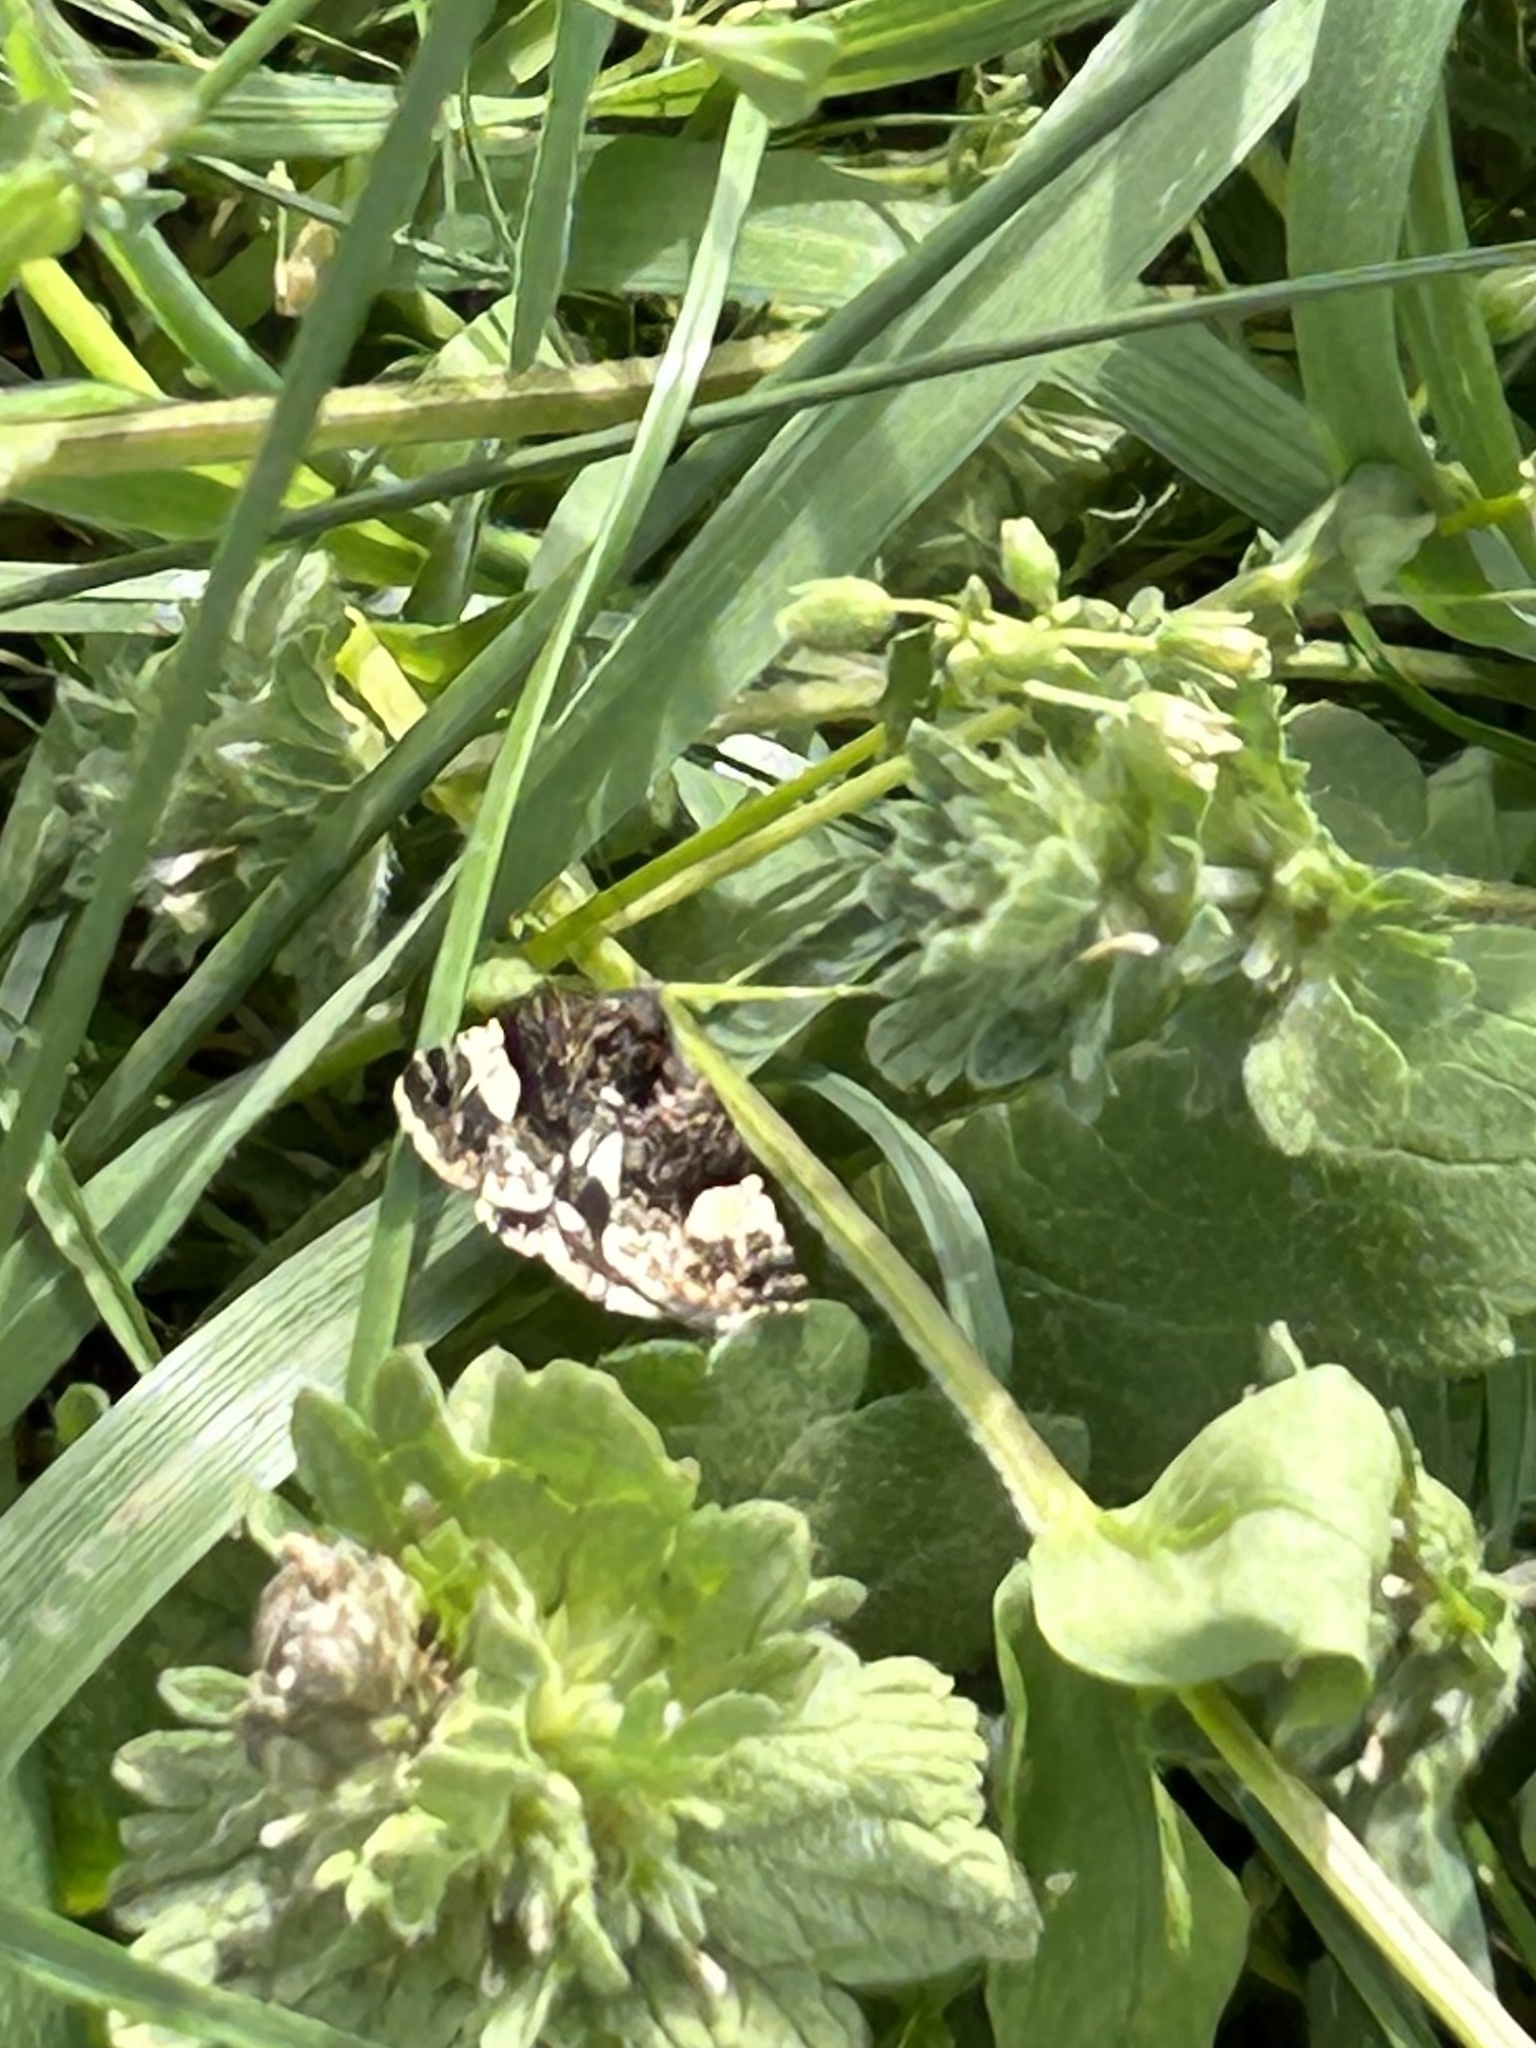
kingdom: Animalia
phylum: Arthropoda
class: Insecta
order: Lepidoptera
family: Erebidae
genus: Tyta
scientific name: Tyta luctuosa
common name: Four-spotted
